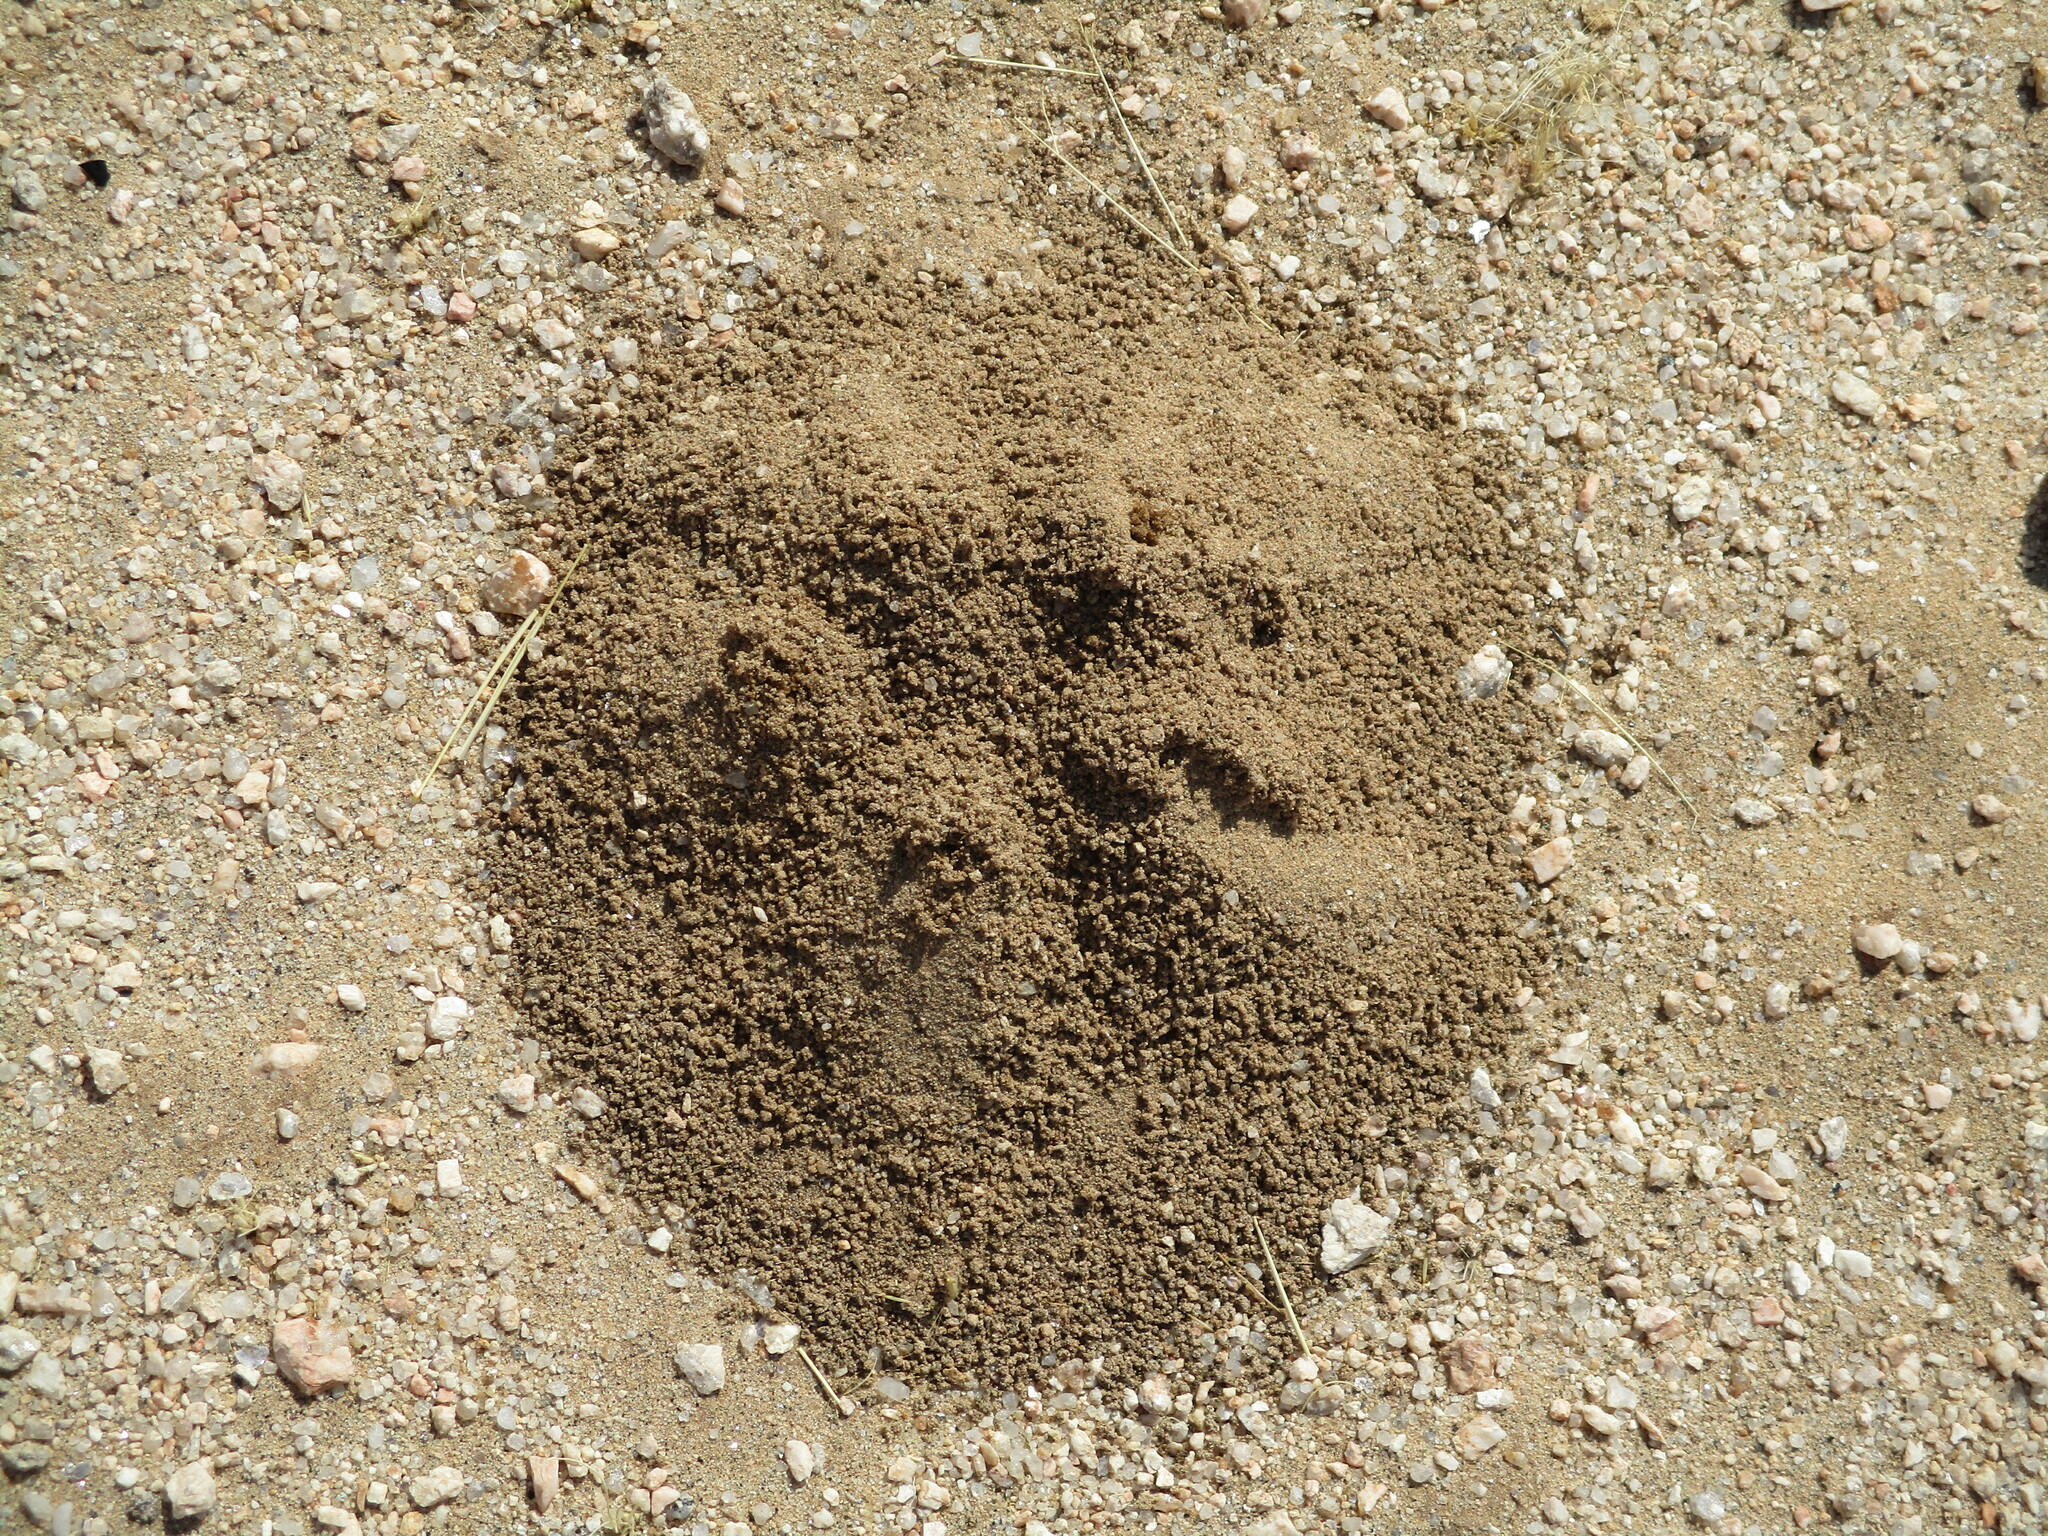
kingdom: Animalia
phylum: Arthropoda
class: Insecta
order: Blattodea
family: Hodotermitidae
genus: Hodotermes
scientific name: Hodotermes mossambicus
